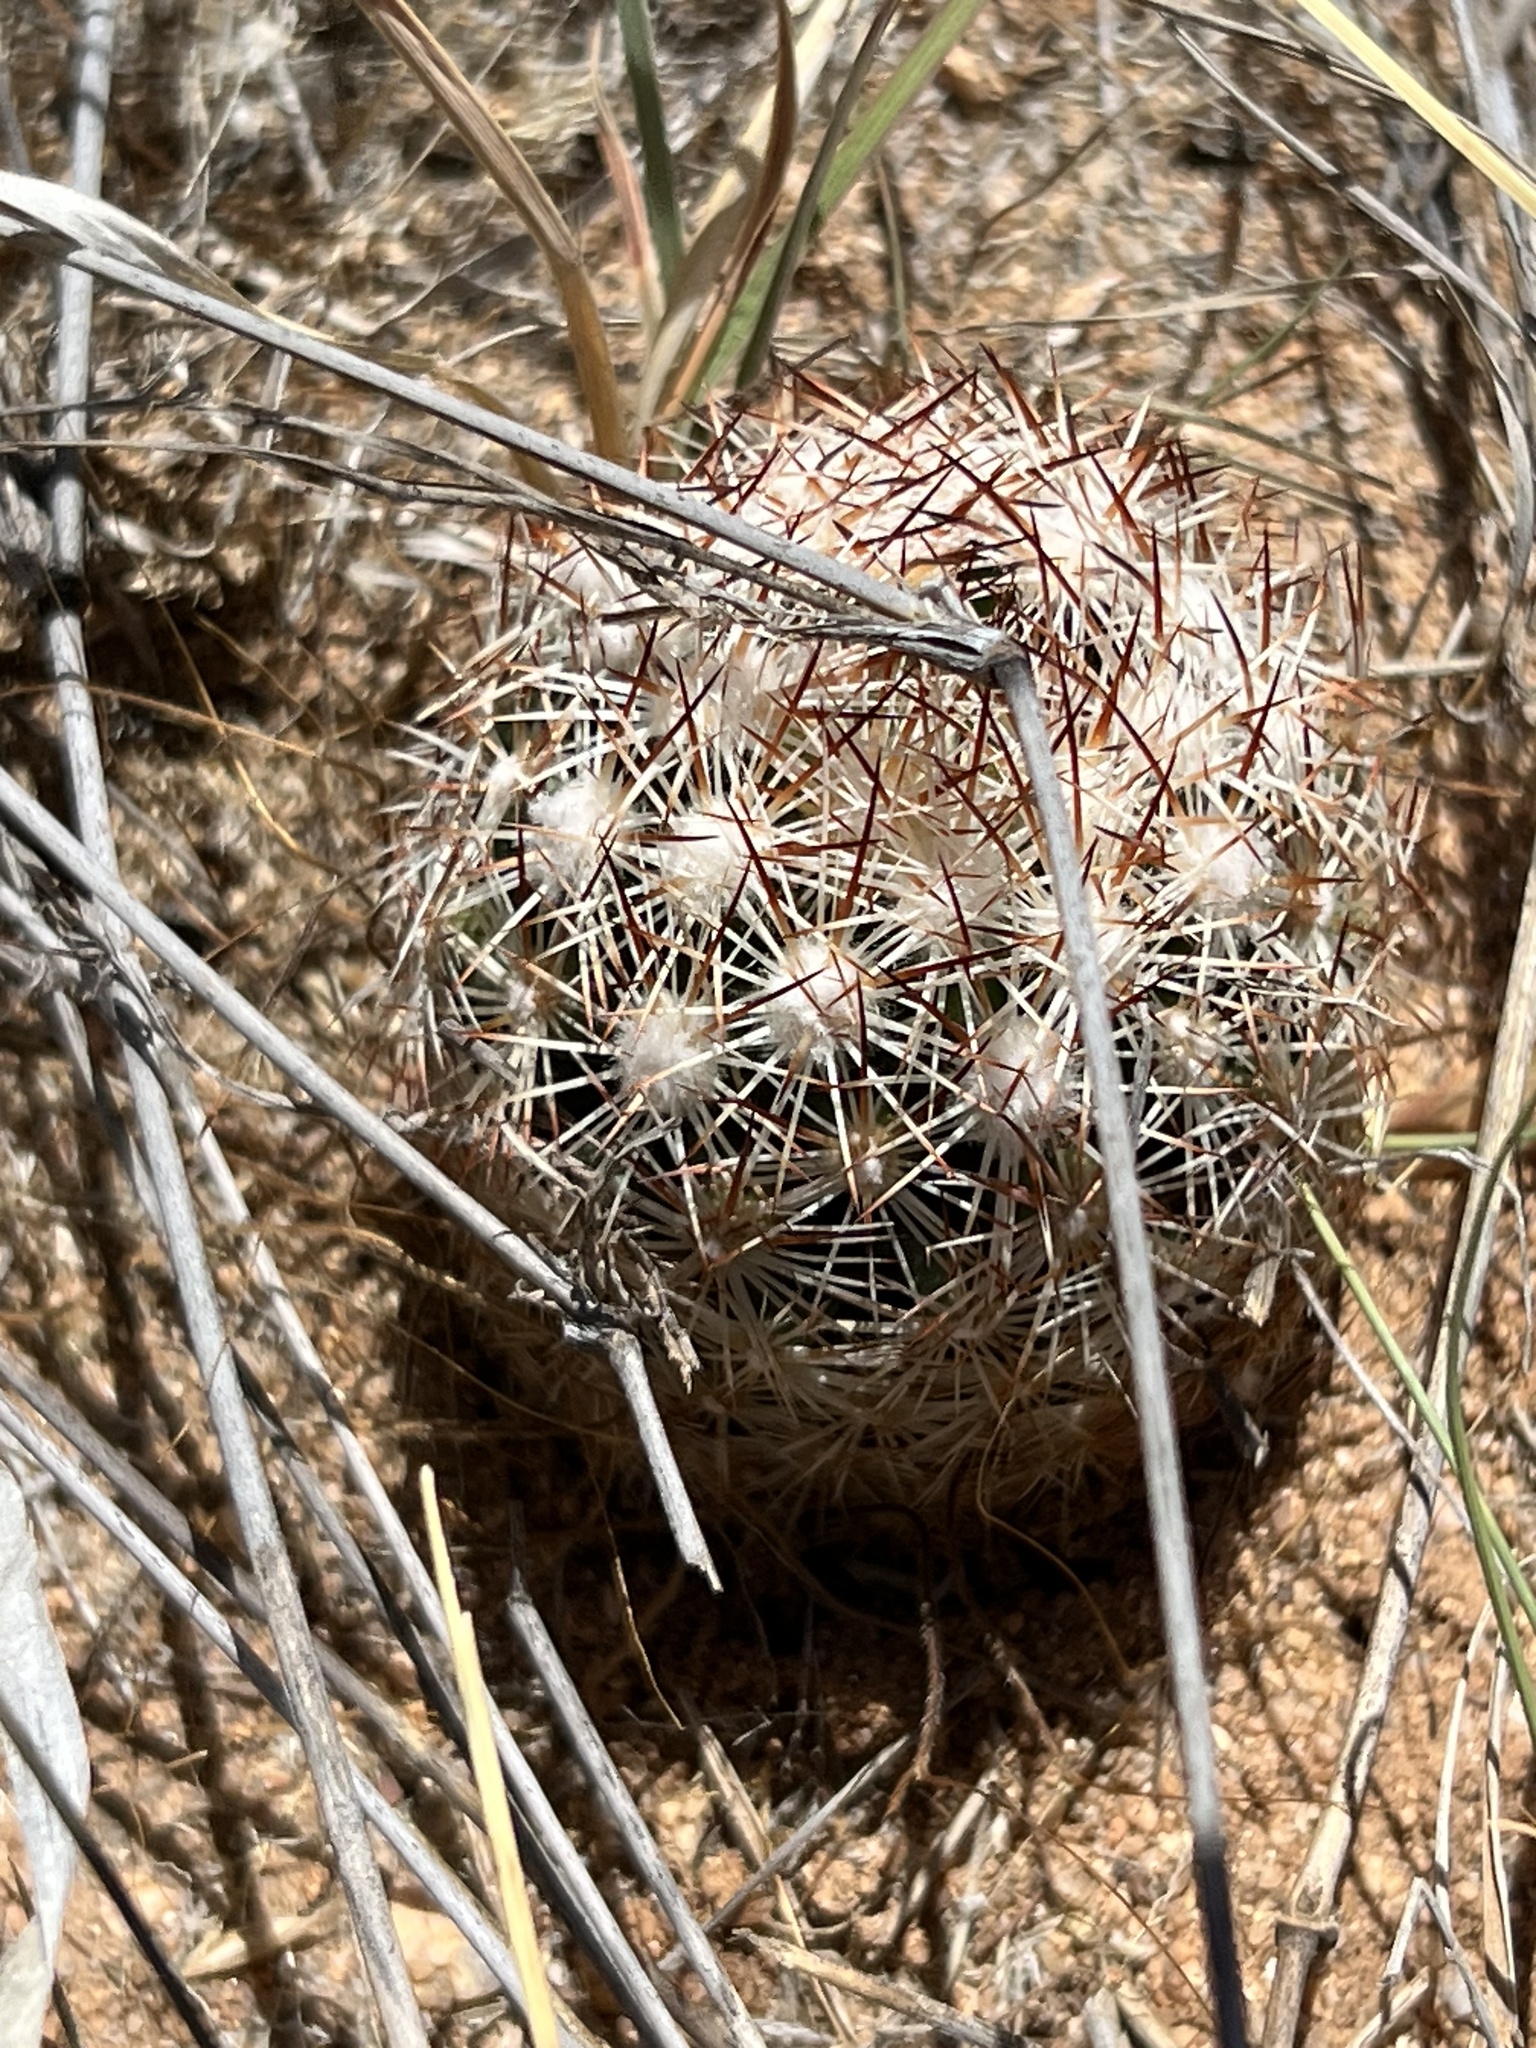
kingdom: Plantae
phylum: Tracheophyta
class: Magnoliopsida
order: Caryophyllales
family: Cactaceae
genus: Pelecyphora
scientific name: Pelecyphora vivipara
